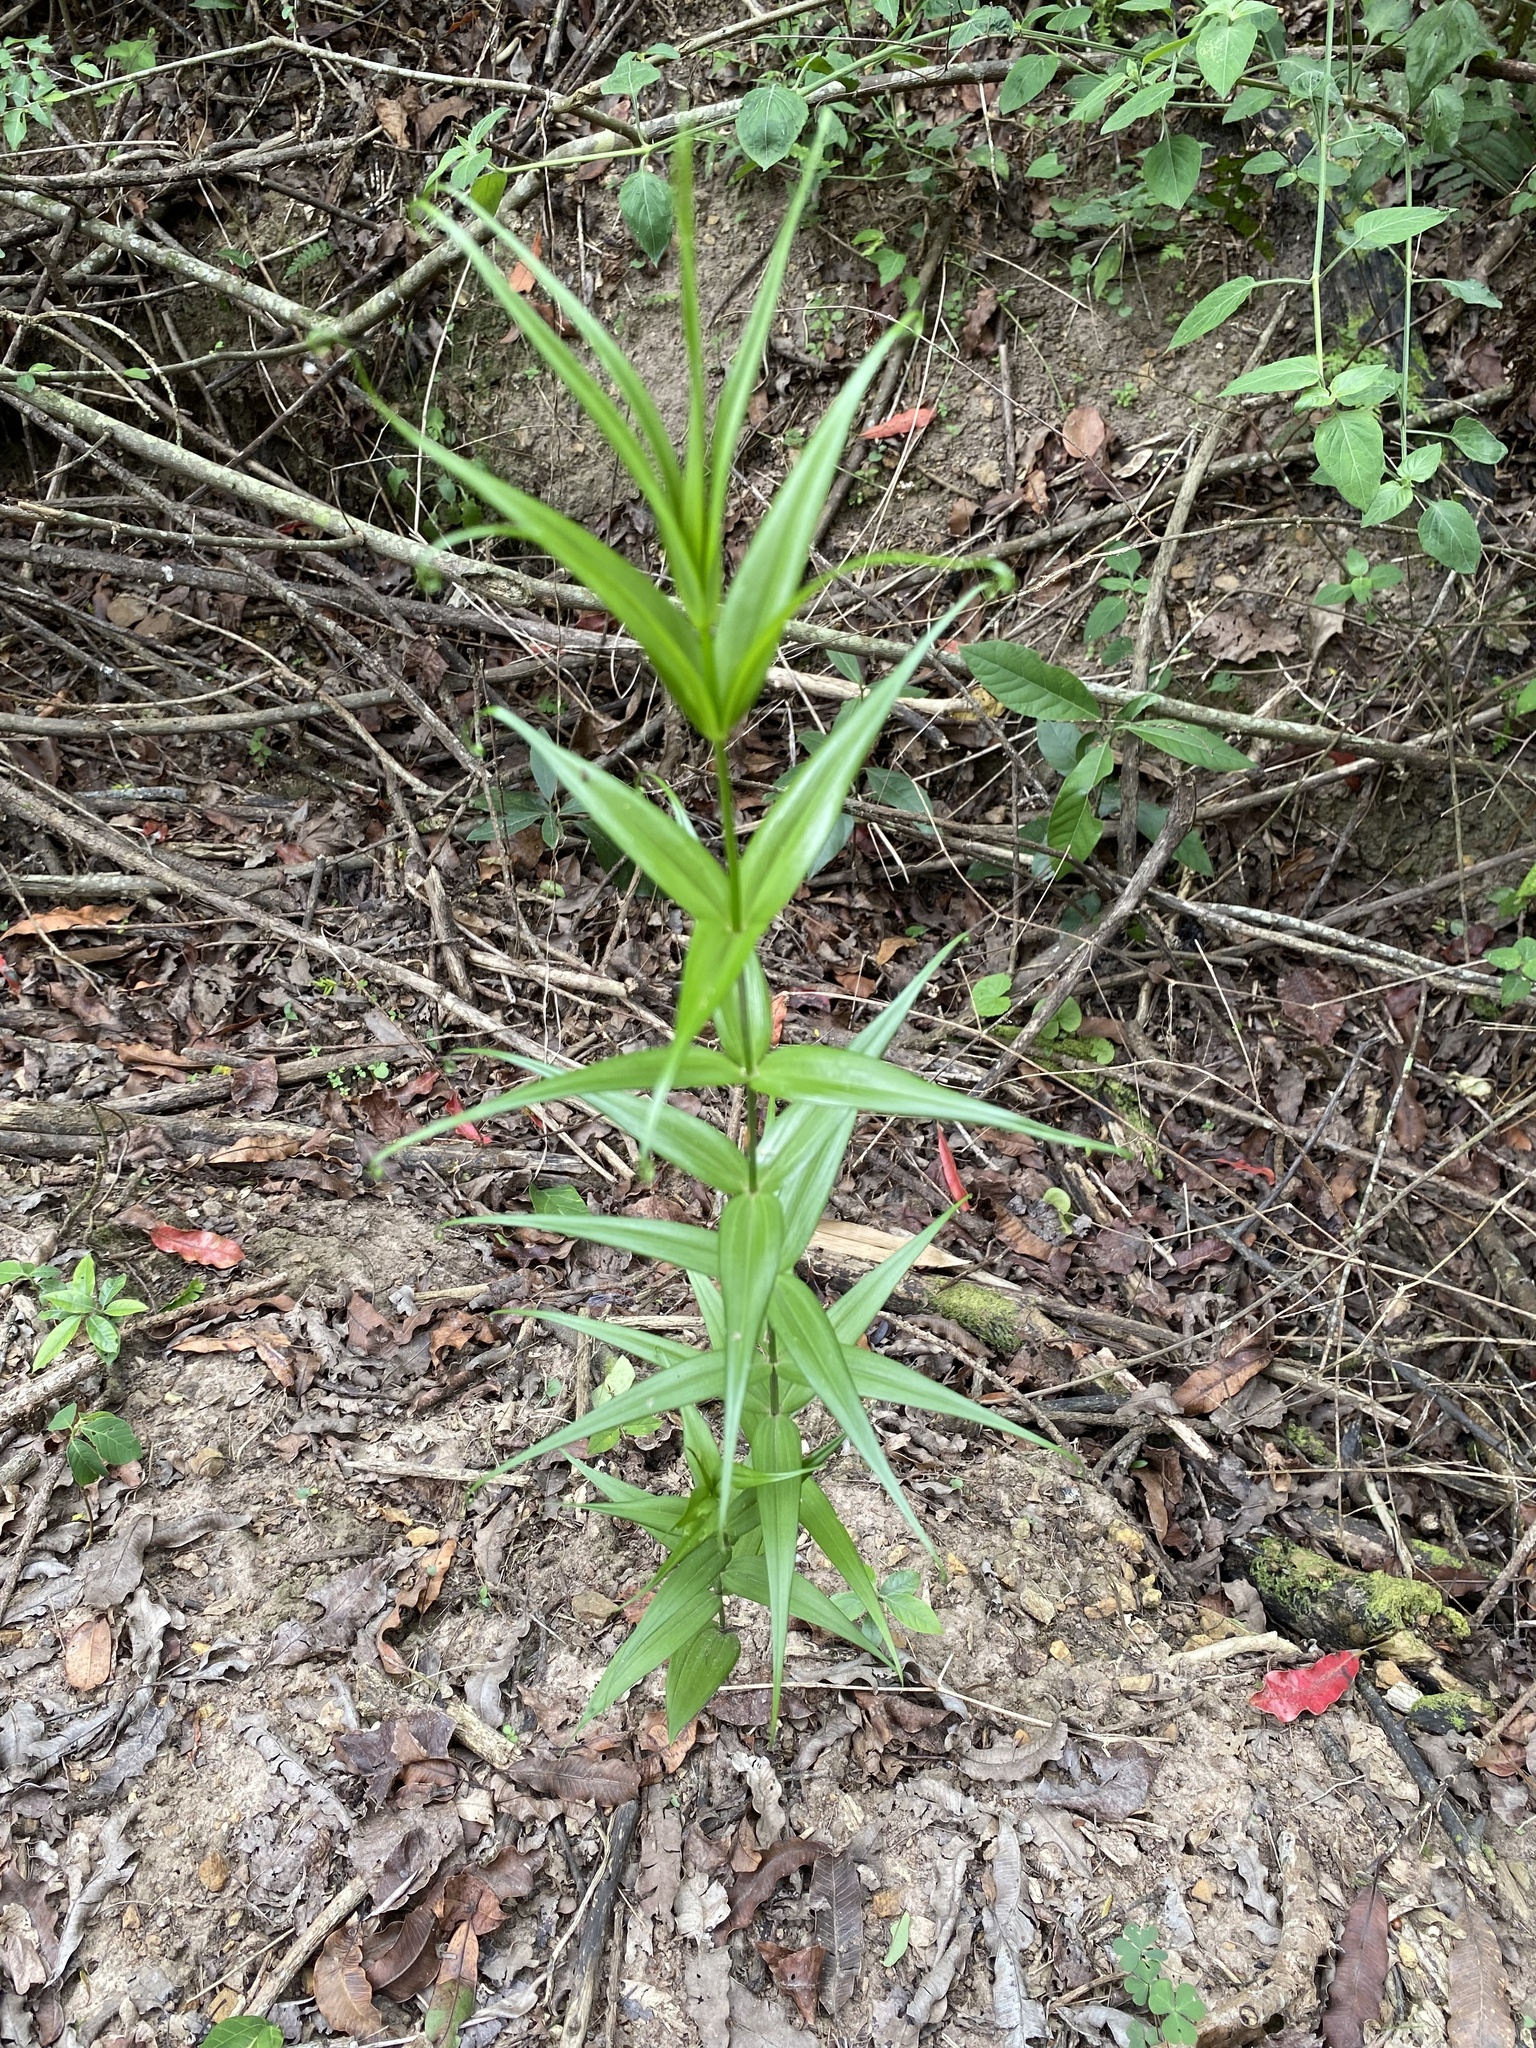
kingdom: Plantae
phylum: Tracheophyta
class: Liliopsida
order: Liliales
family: Colchicaceae
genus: Gloriosa
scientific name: Gloriosa superba
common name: Flame lily
